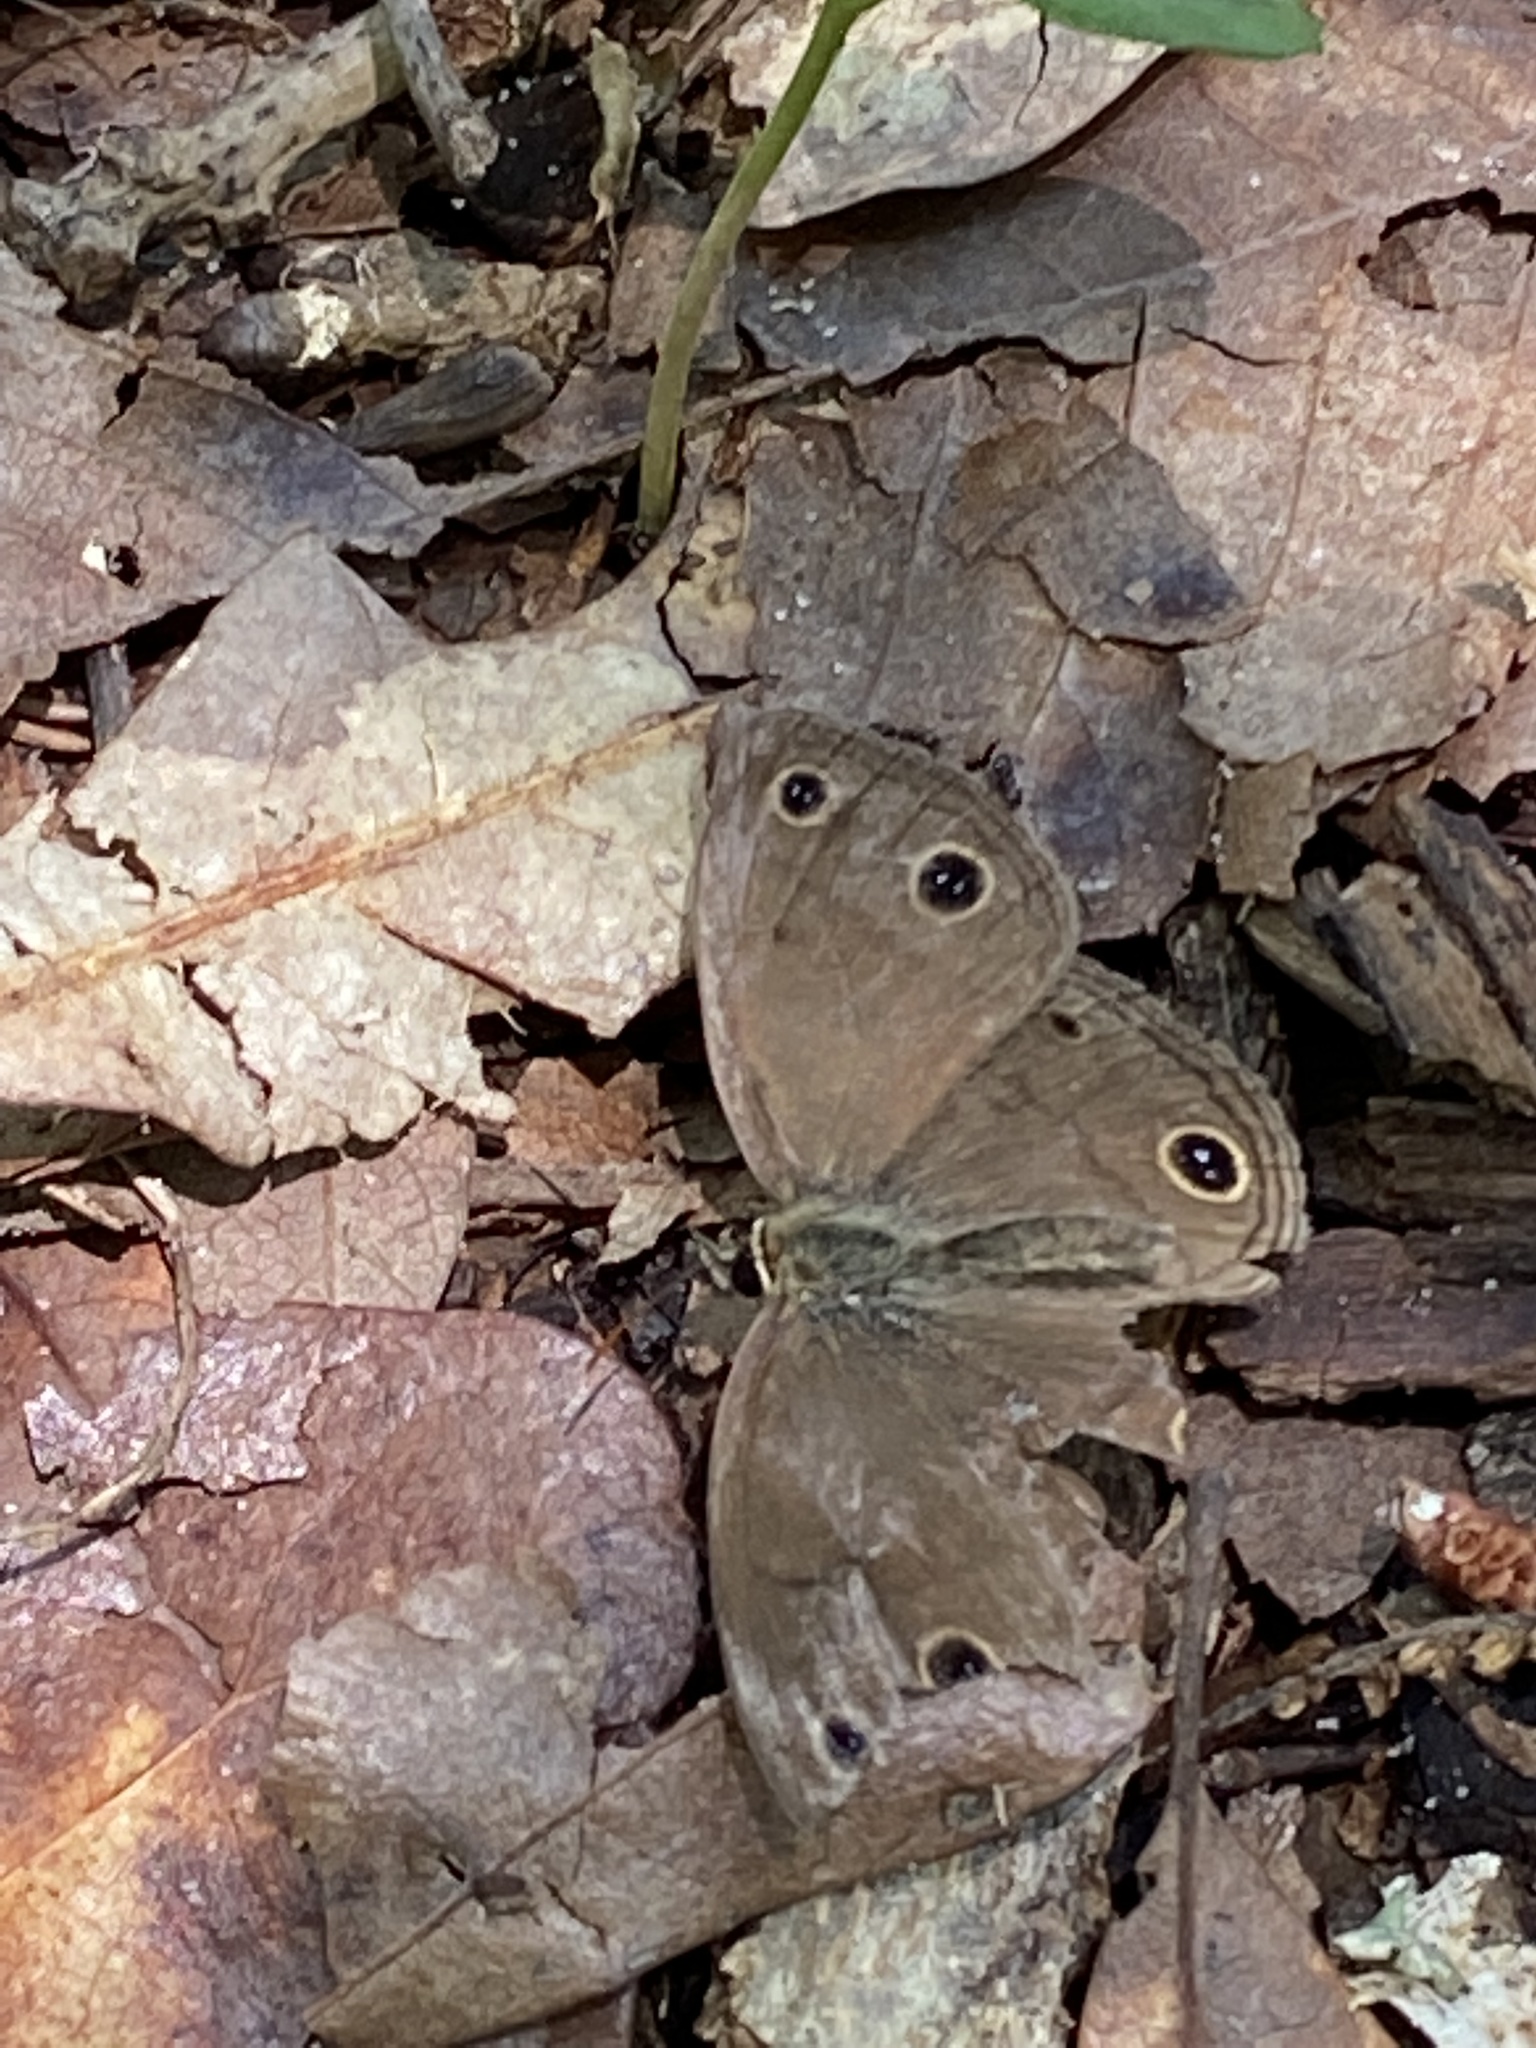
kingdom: Animalia
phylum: Arthropoda
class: Insecta
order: Lepidoptera
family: Nymphalidae
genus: Euptychia
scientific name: Euptychia cymela
